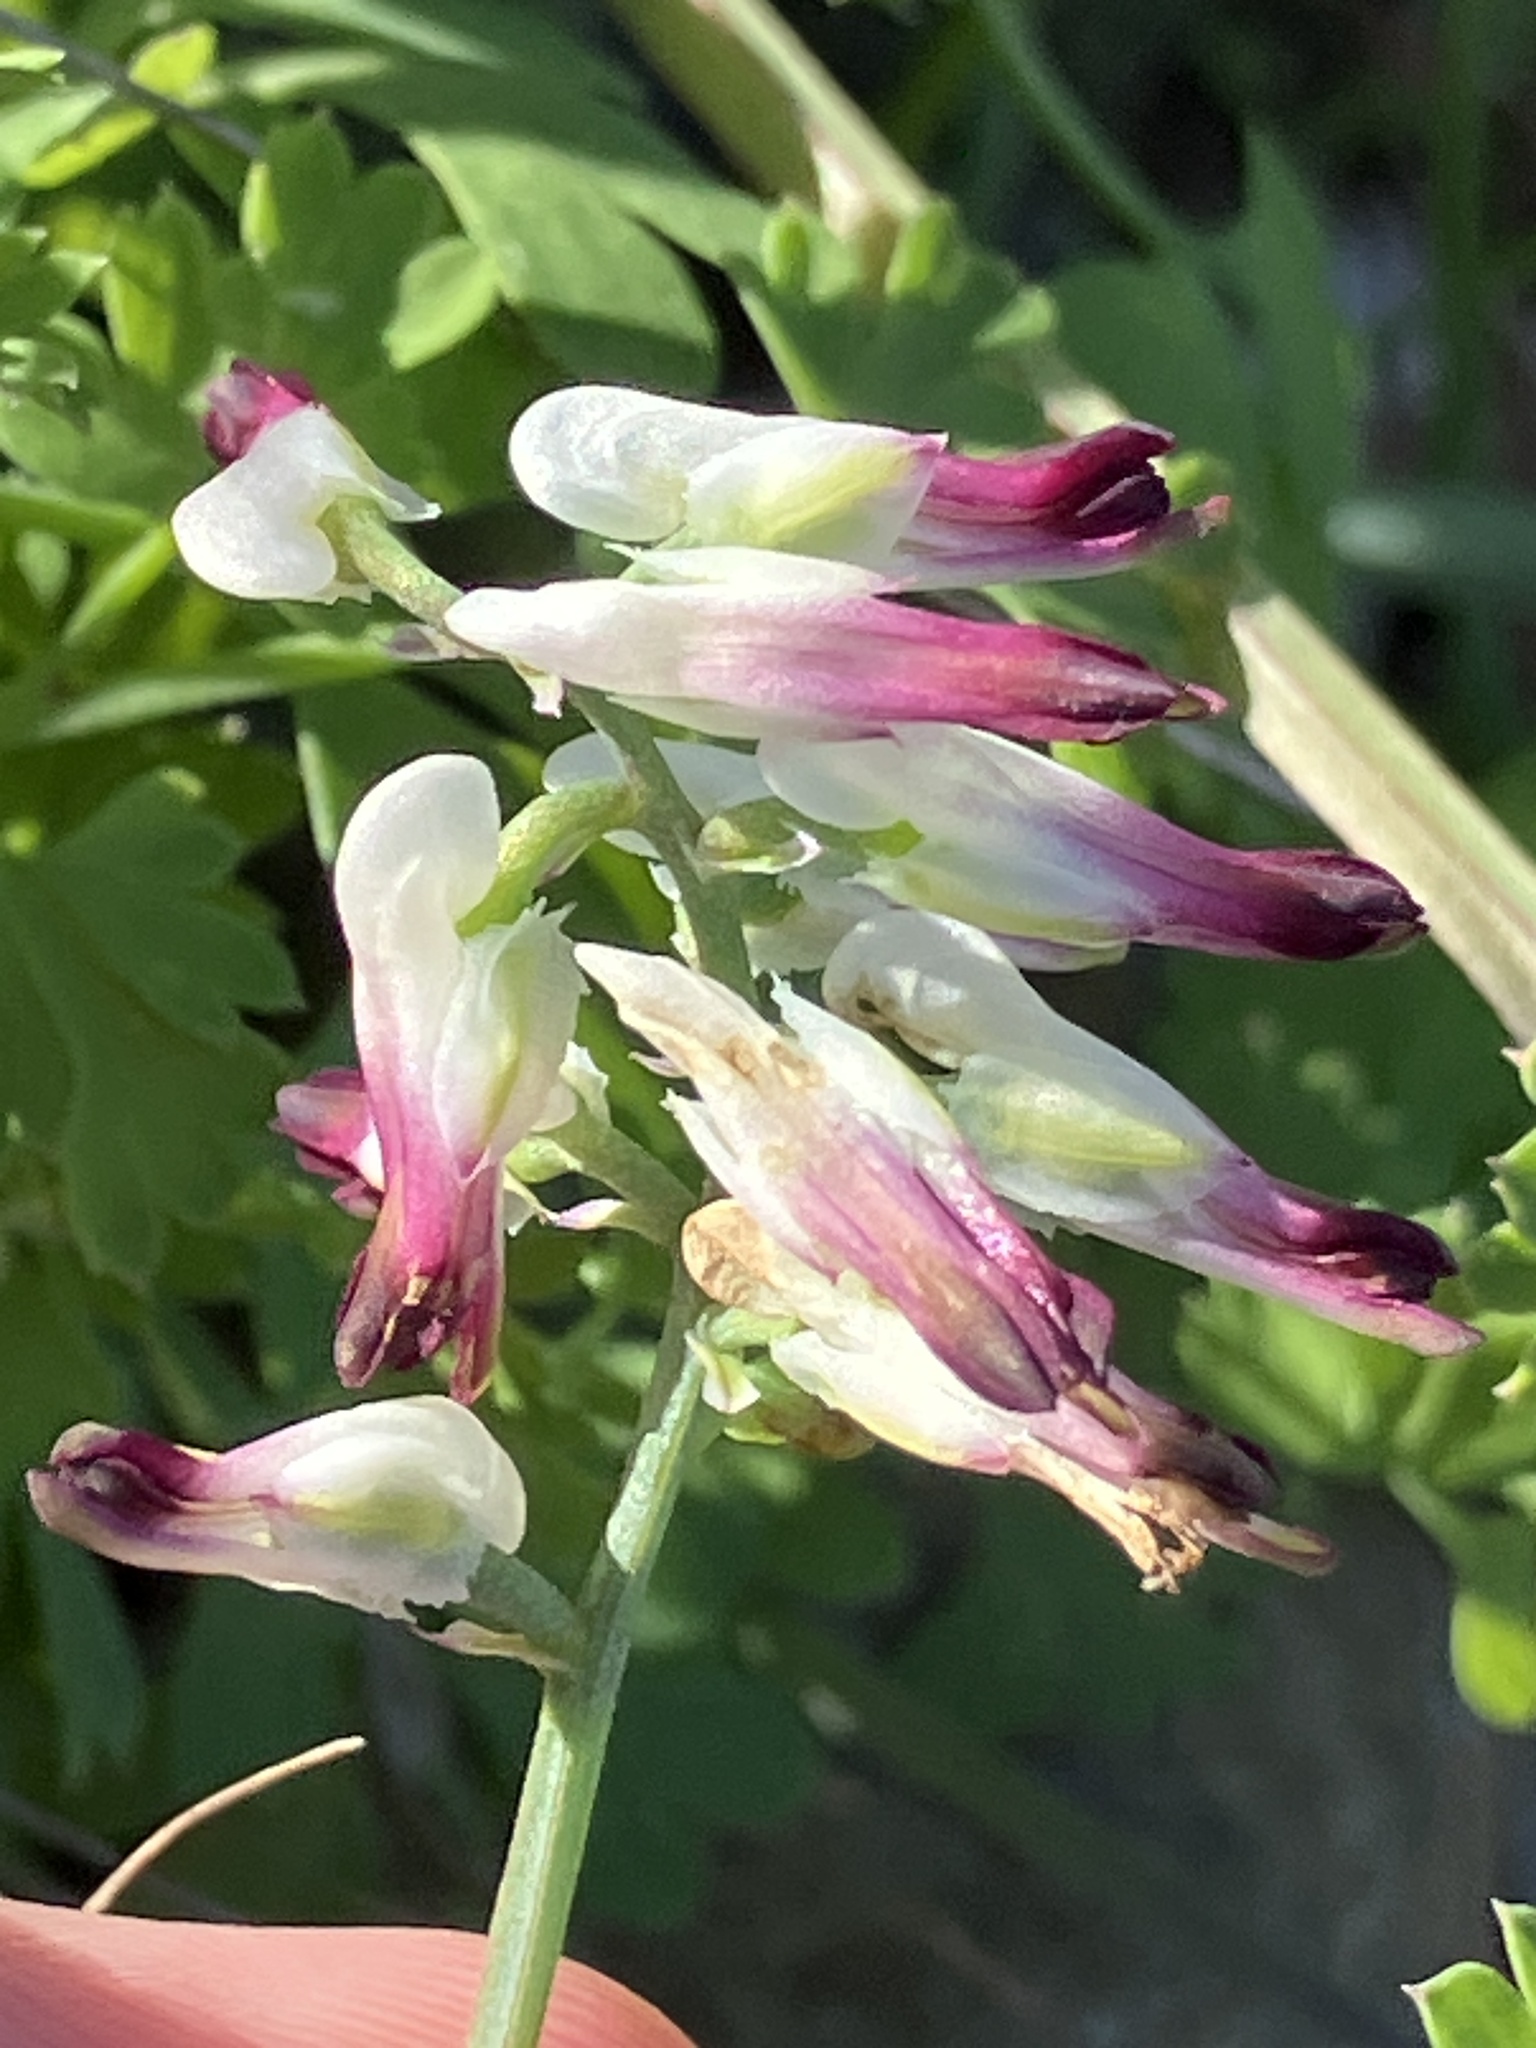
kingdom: Plantae
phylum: Tracheophyta
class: Magnoliopsida
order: Ranunculales
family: Papaveraceae
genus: Fumaria
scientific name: Fumaria capreolata
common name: White ramping-fumitory
